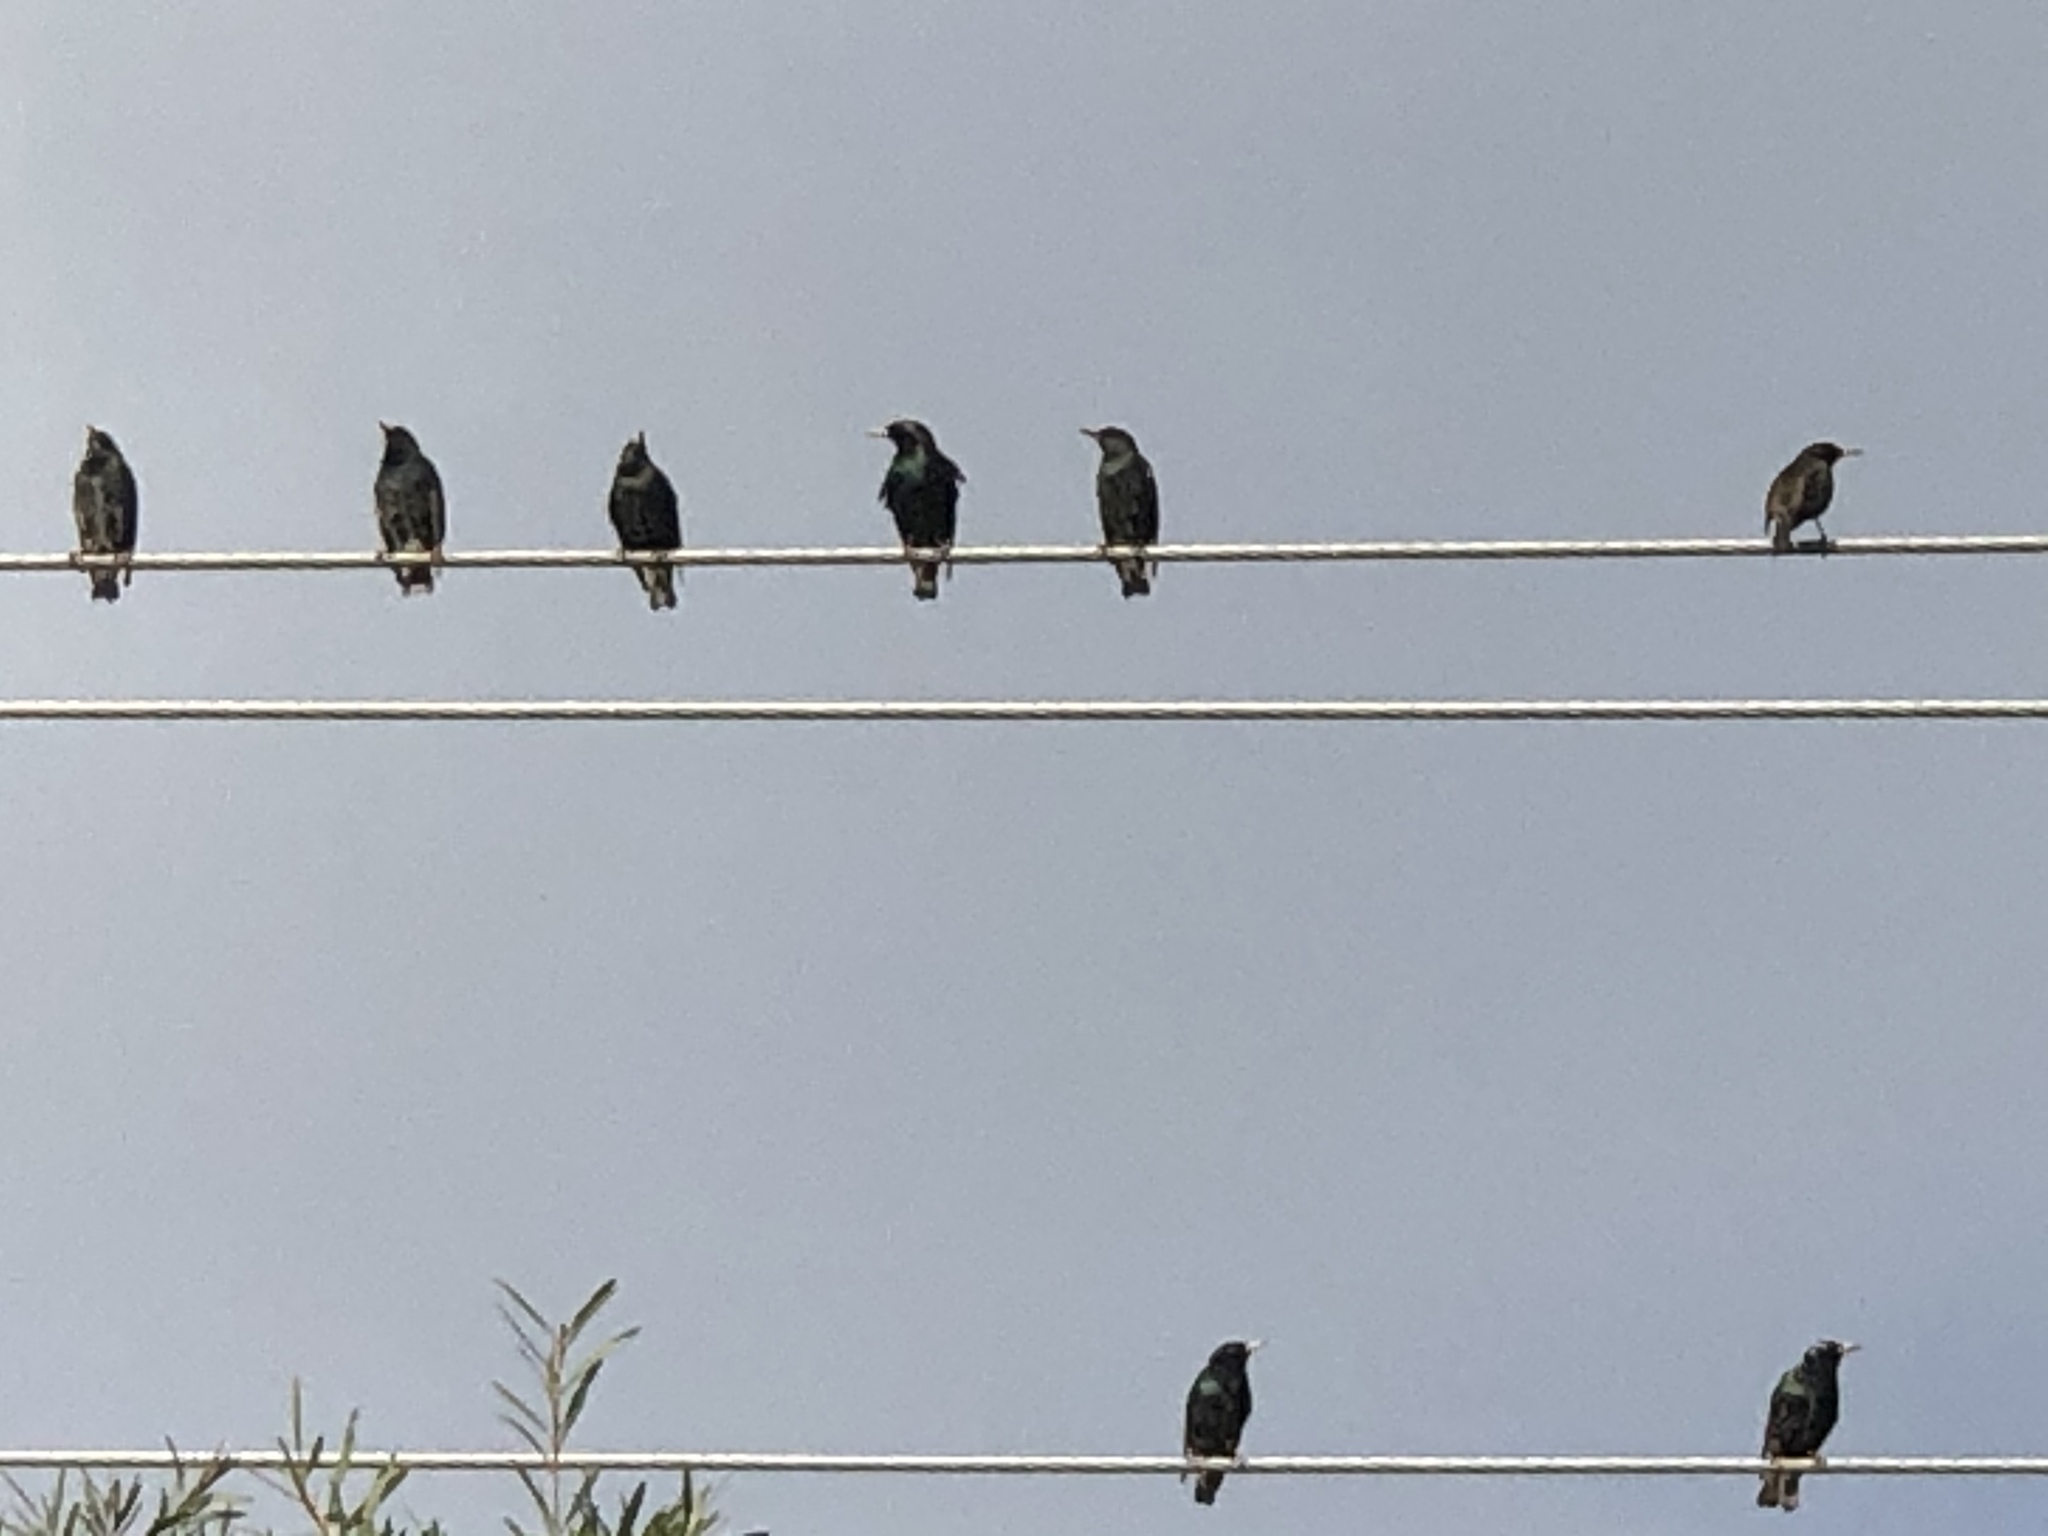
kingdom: Animalia
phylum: Chordata
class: Aves
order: Passeriformes
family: Sturnidae
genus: Sturnus
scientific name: Sturnus vulgaris
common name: Common starling
